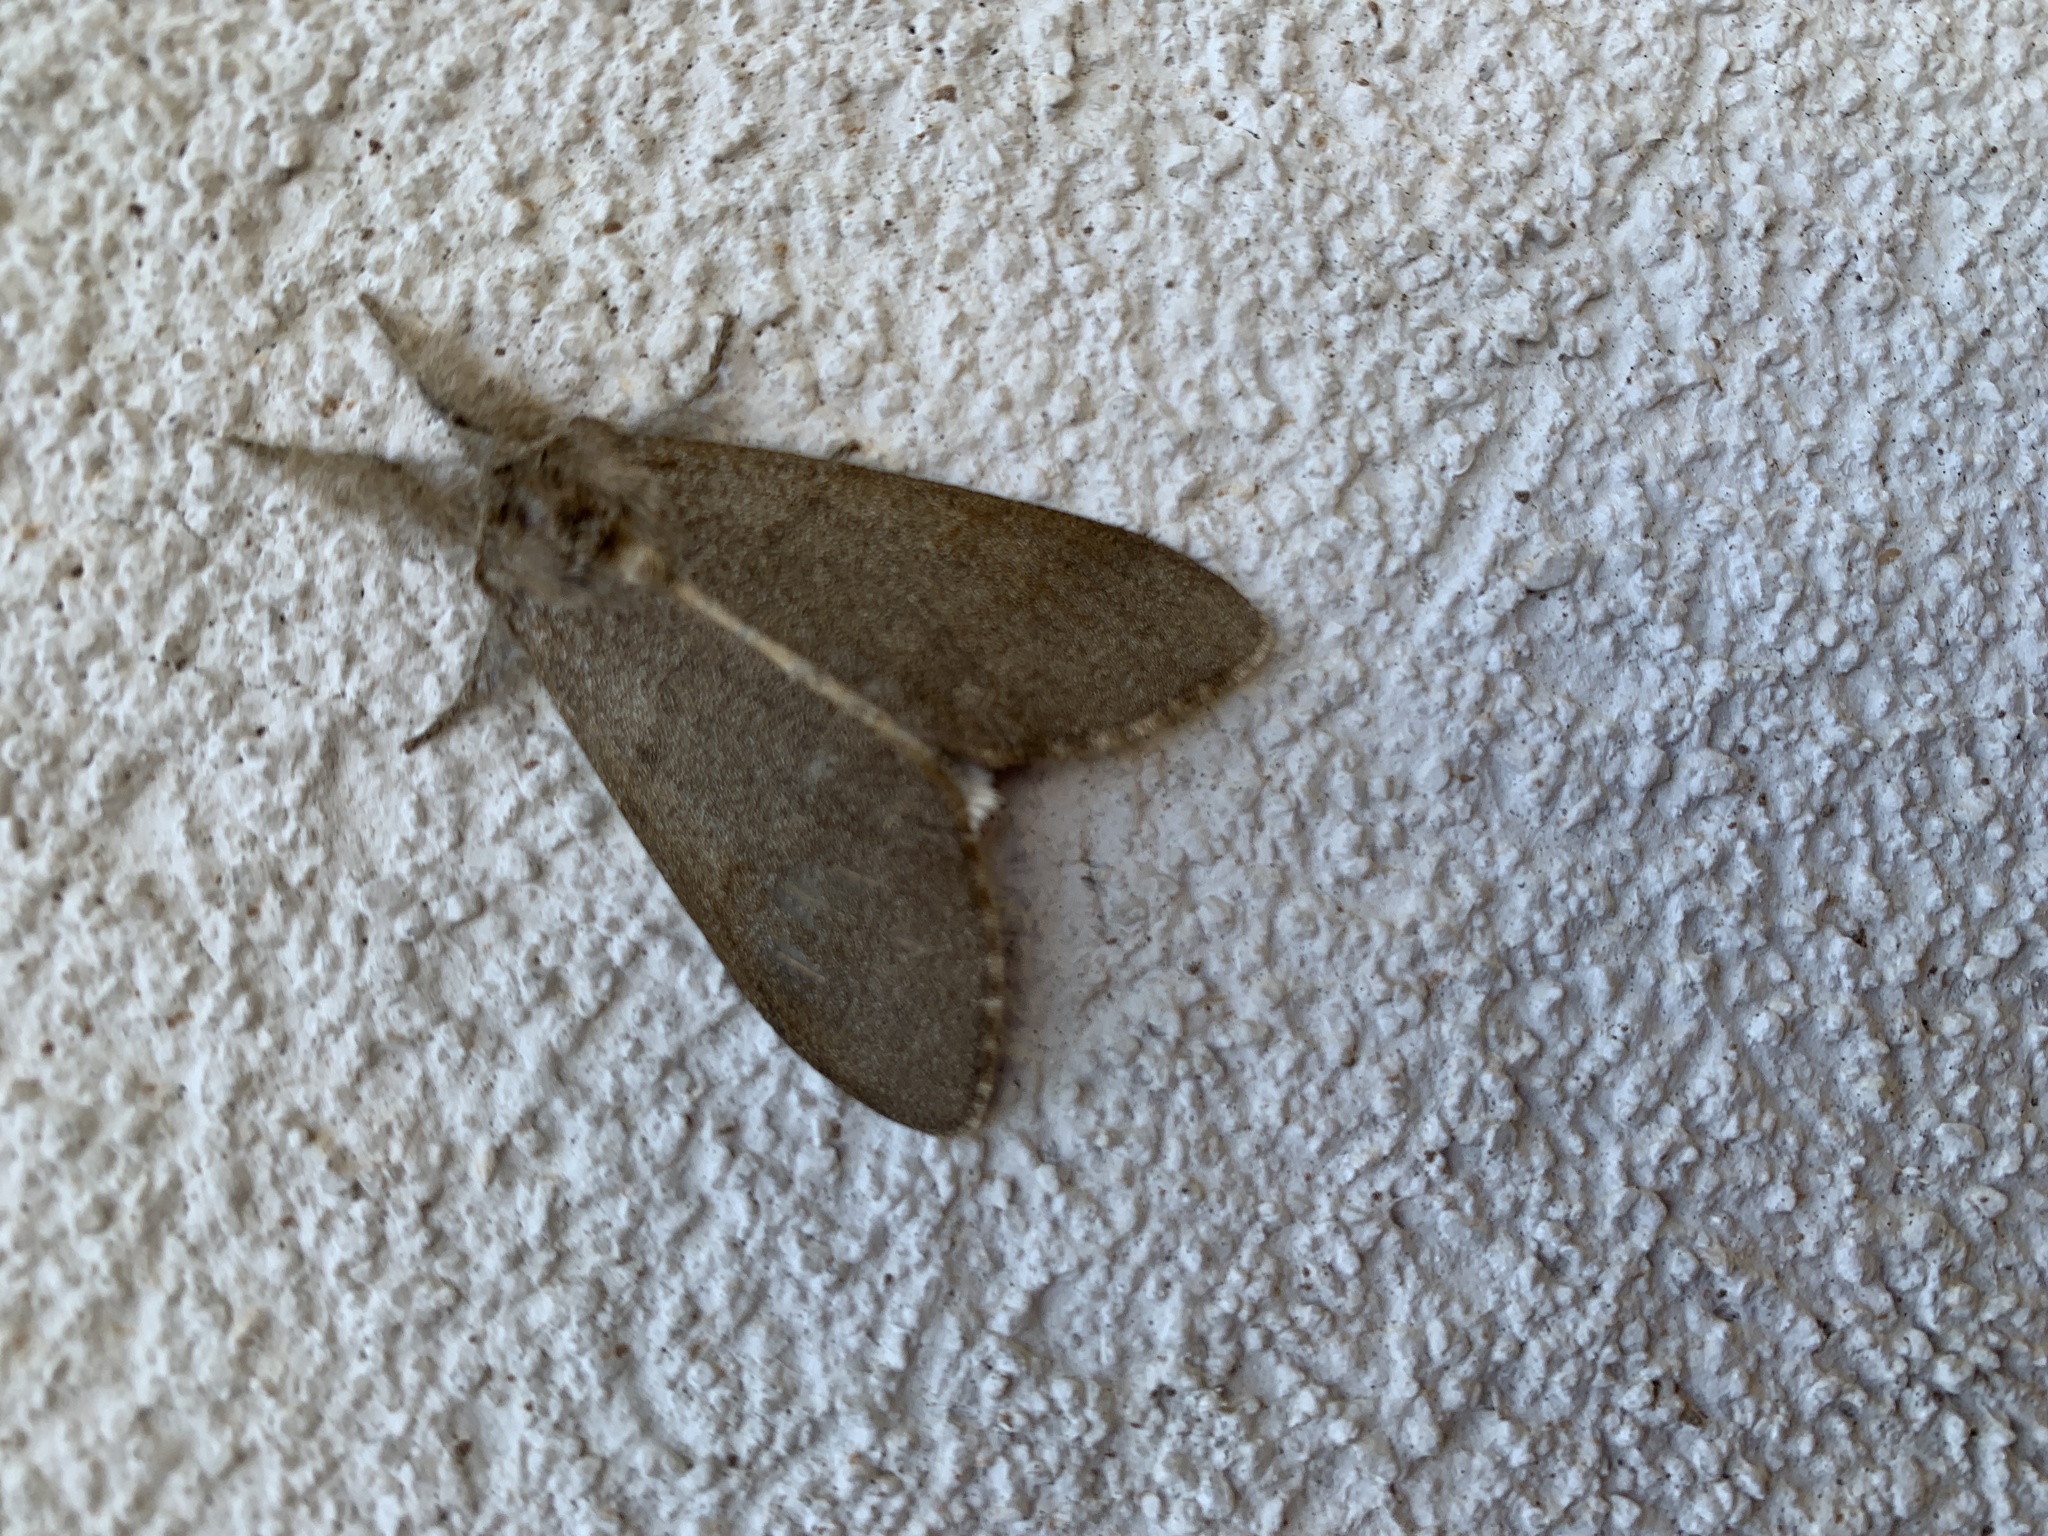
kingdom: Animalia
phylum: Arthropoda
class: Insecta
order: Lepidoptera
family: Erebidae
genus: Calliteara
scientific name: Calliteara pudibunda
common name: Pale tussock
